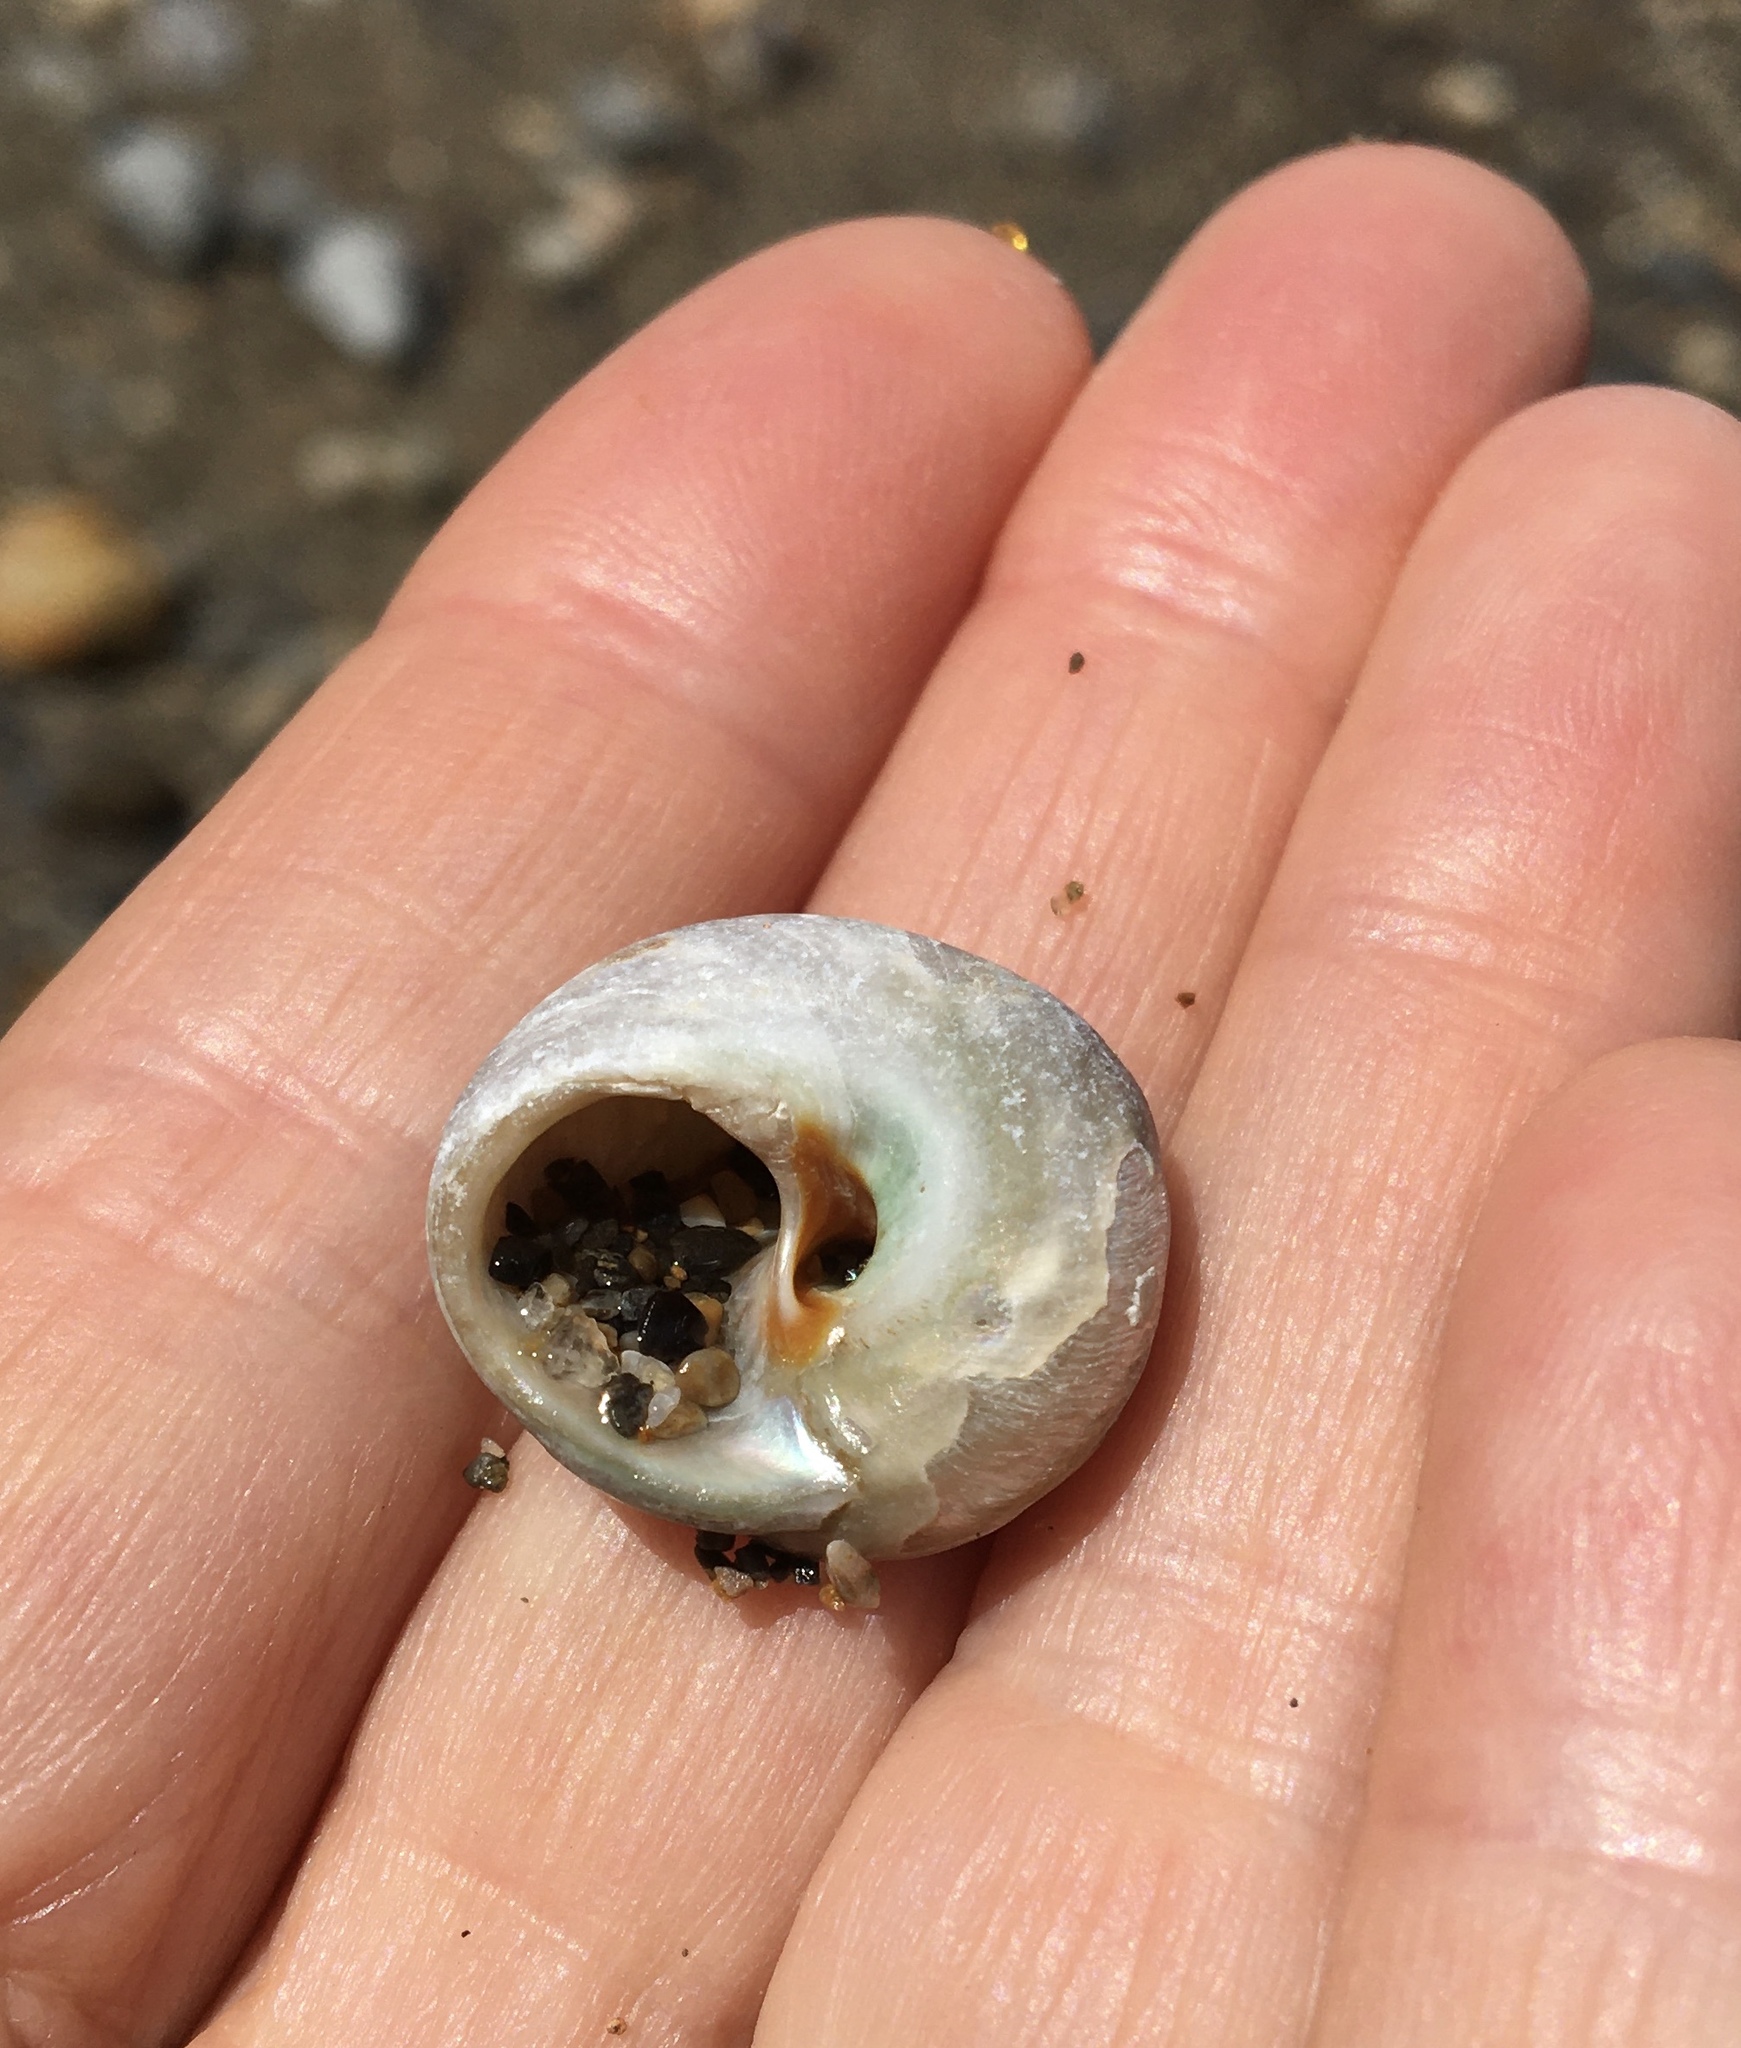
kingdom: Animalia
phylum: Mollusca
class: Gastropoda
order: Trochida
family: Tegulidae
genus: Tegula
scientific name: Tegula aureotincta
